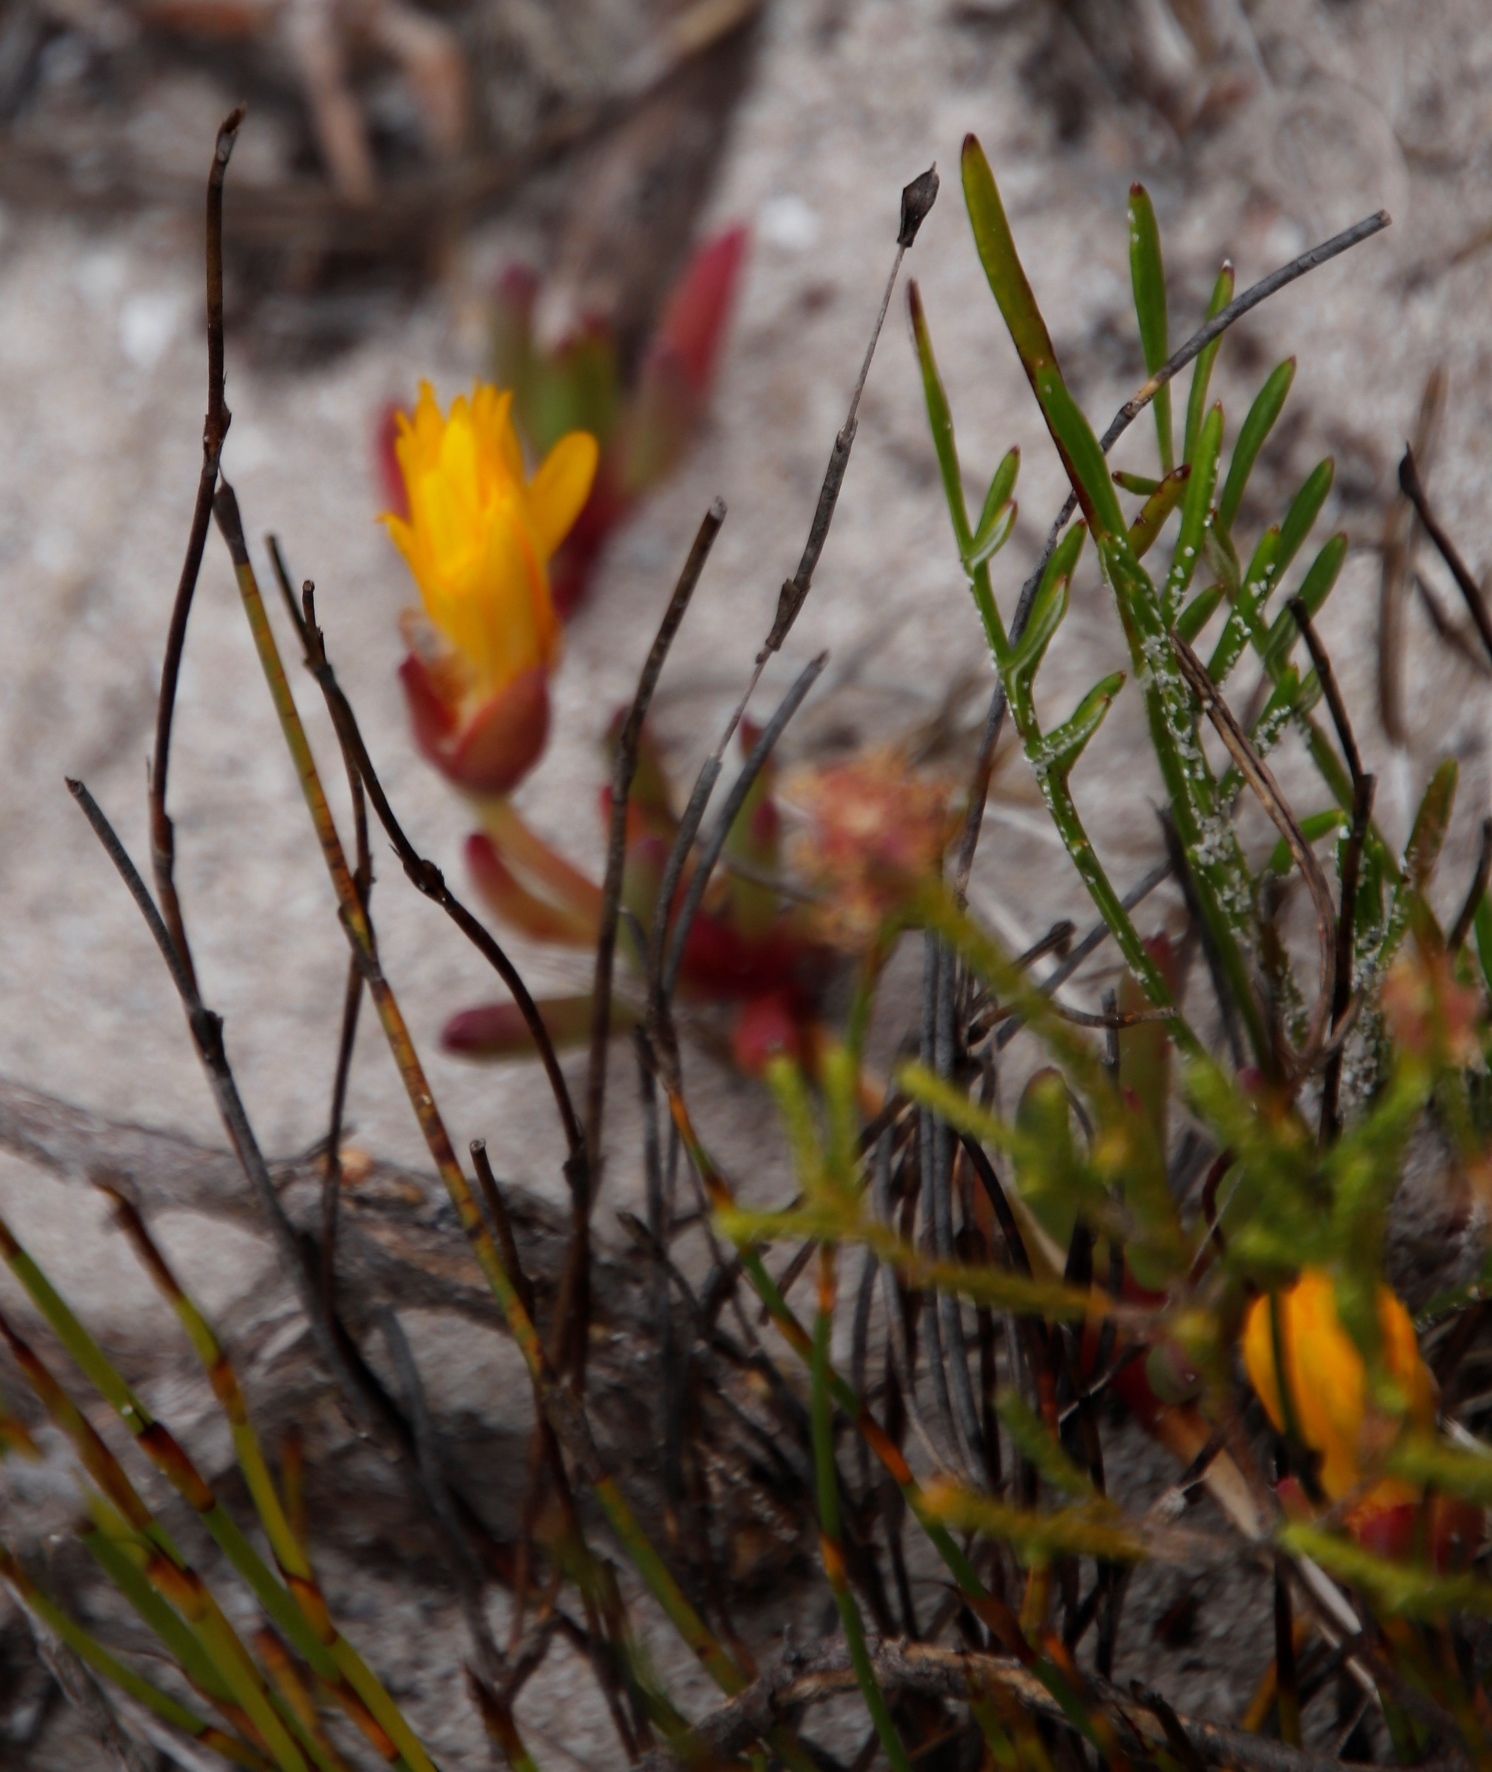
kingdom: Plantae
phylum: Tracheophyta
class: Magnoliopsida
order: Caryophyllales
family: Aizoaceae
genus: Jordaaniella
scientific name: Jordaaniella dubia
